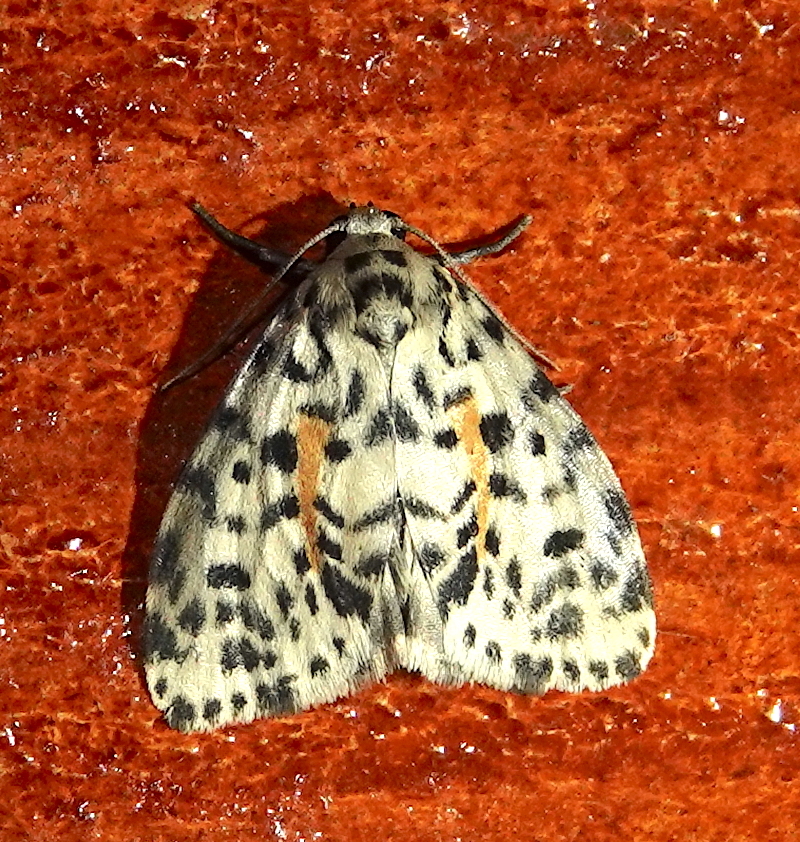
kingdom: Animalia
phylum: Arthropoda
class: Insecta
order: Lepidoptera
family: Erebidae
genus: Clemensia
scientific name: Clemensia leopardina
